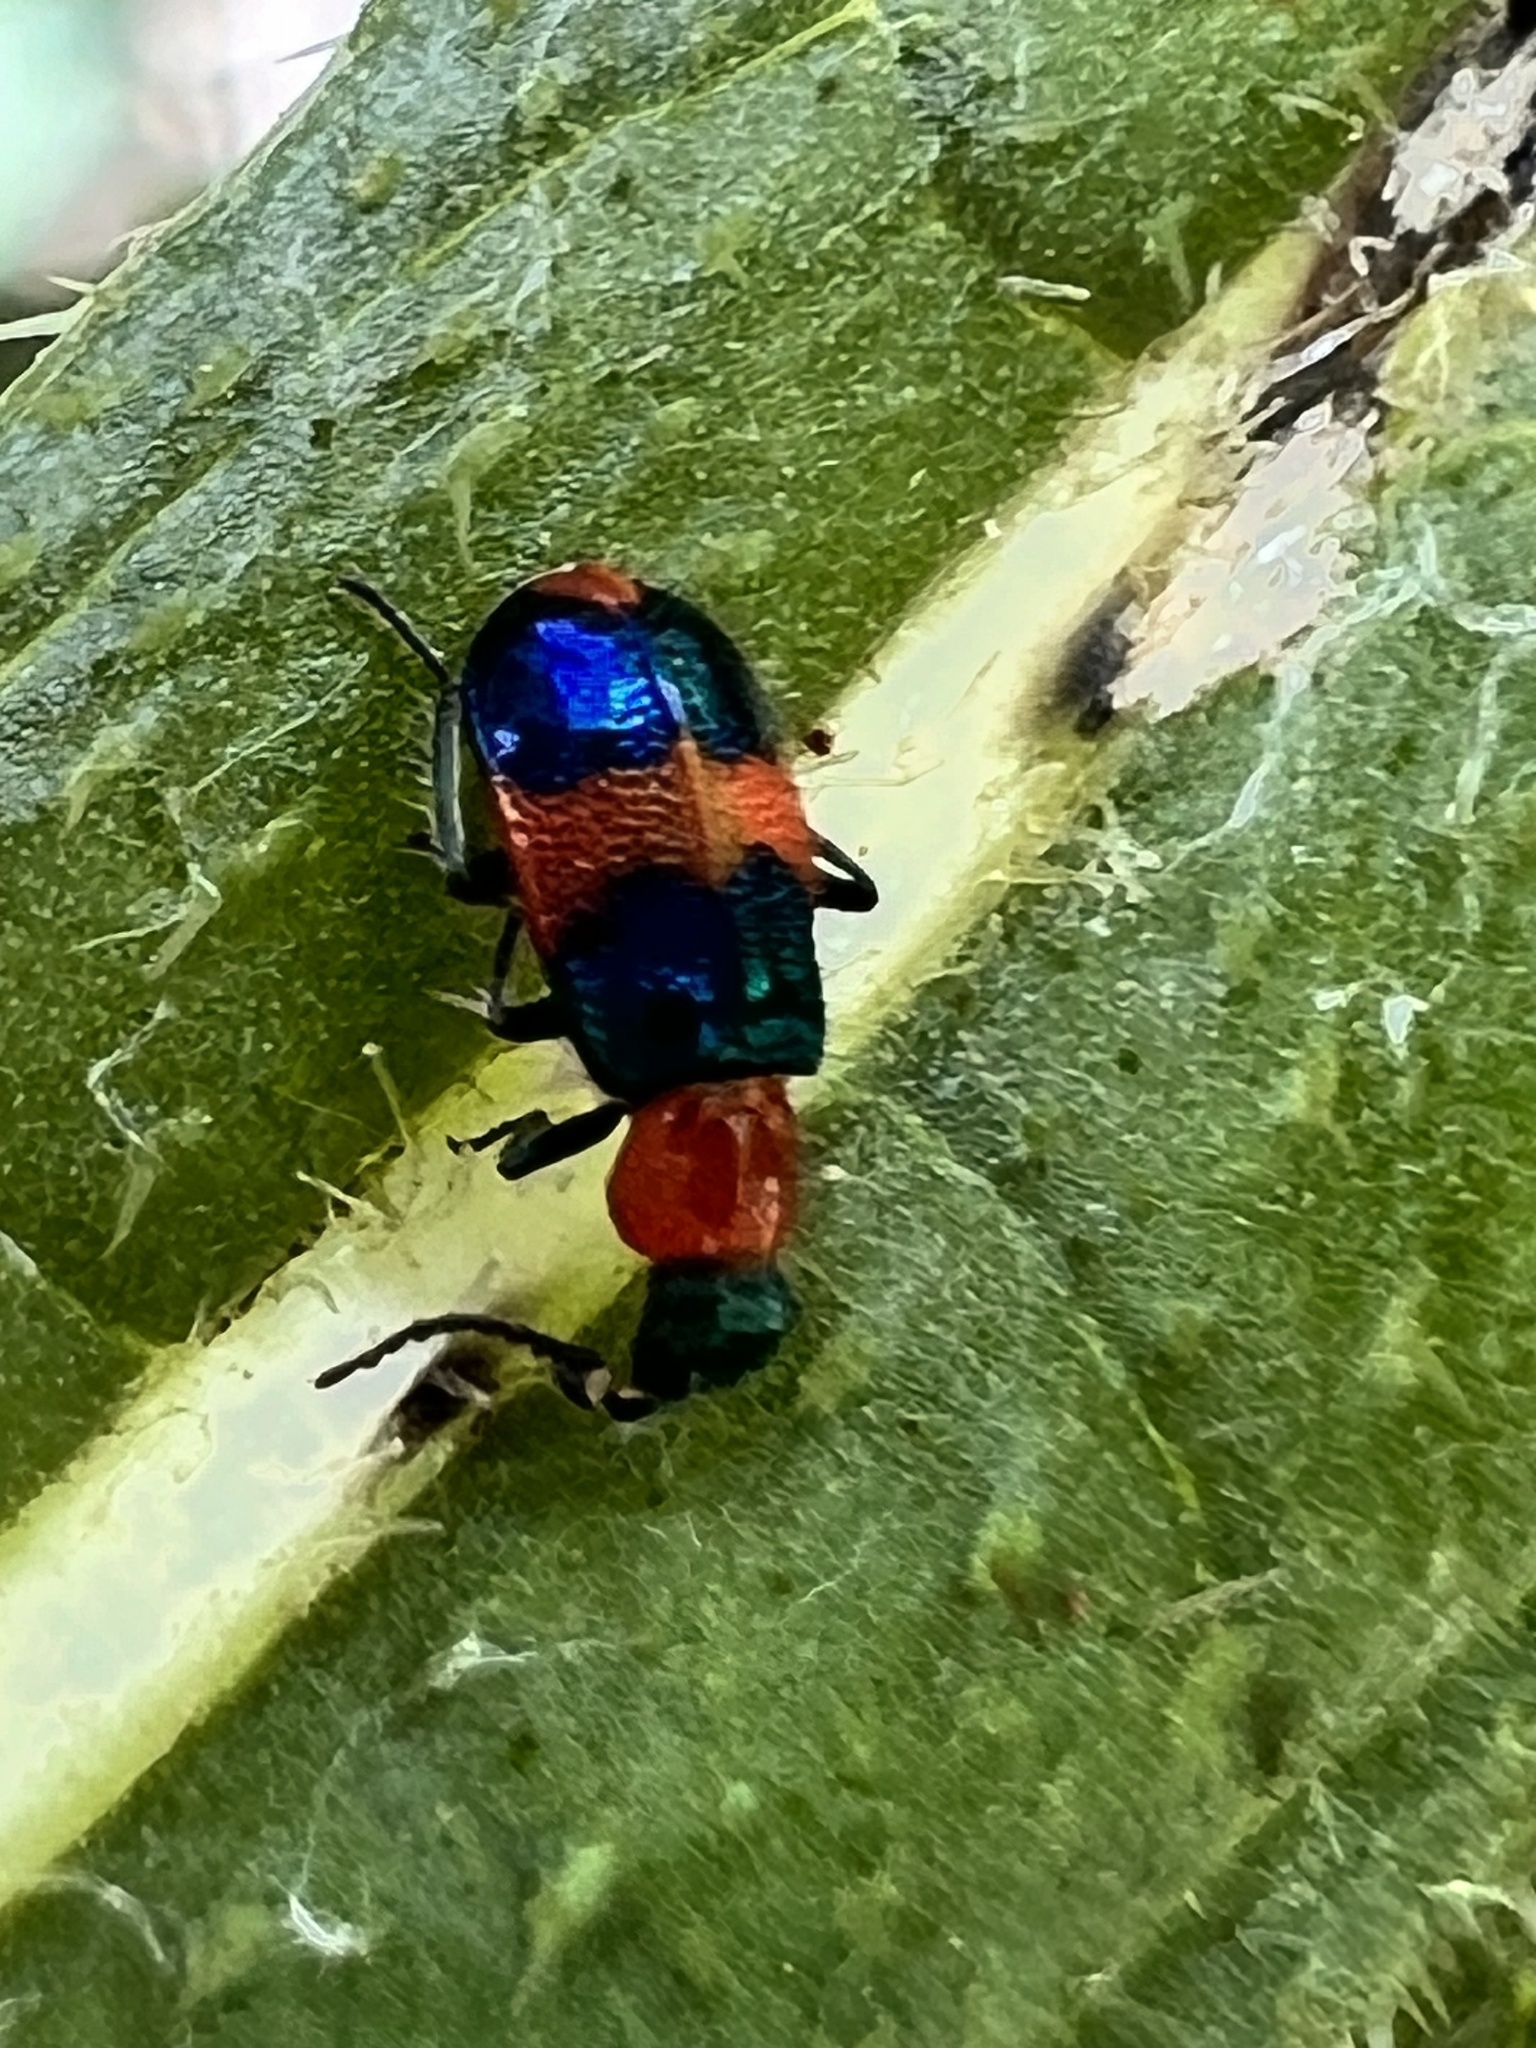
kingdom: Animalia
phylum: Arthropoda
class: Insecta
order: Coleoptera
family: Melyridae
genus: Dicranolaius
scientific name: Dicranolaius bellulus
